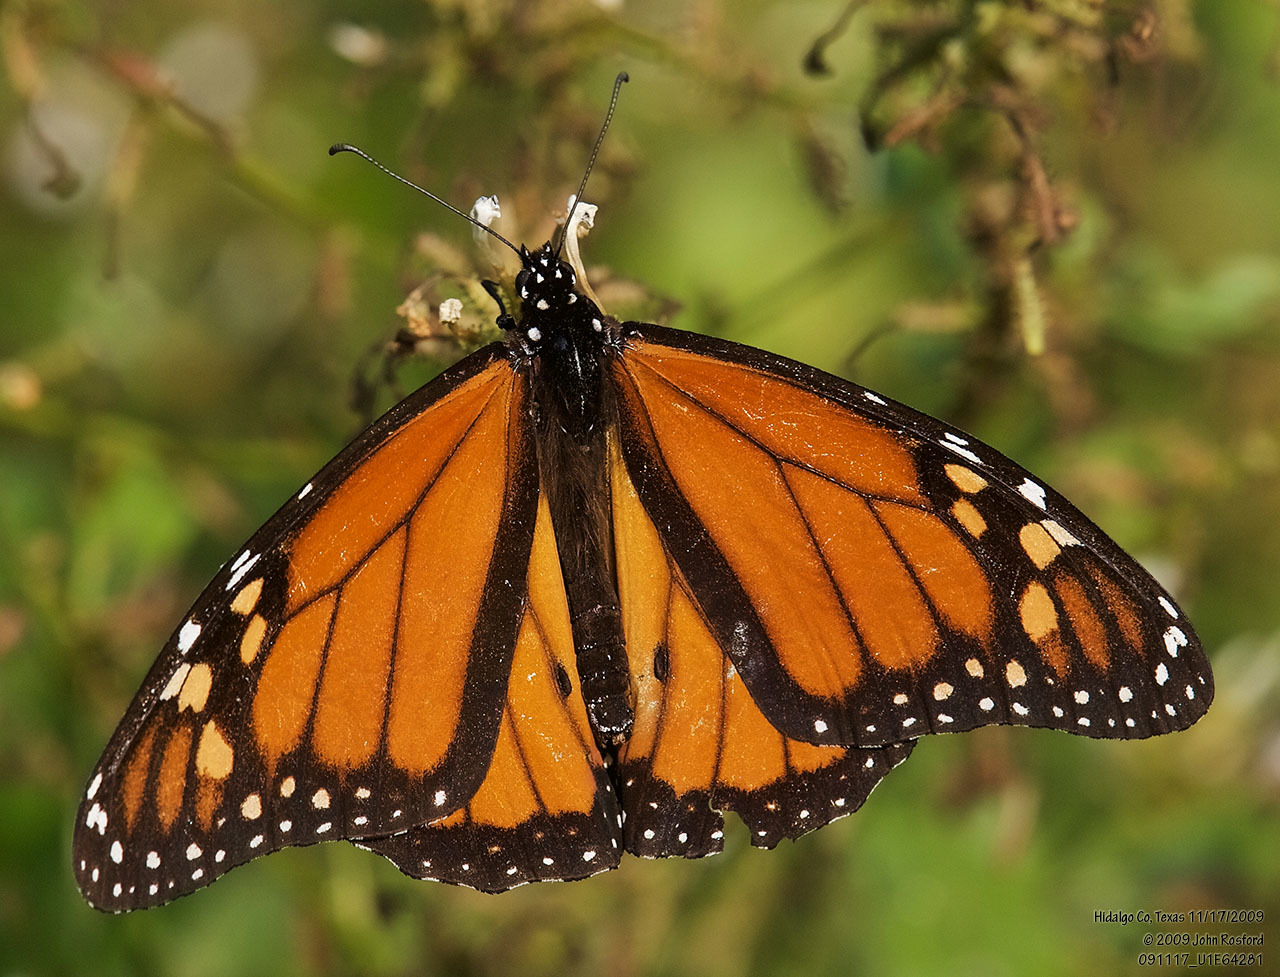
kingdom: Animalia
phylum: Arthropoda
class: Insecta
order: Lepidoptera
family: Nymphalidae
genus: Danaus
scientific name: Danaus plexippus
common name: Monarch
